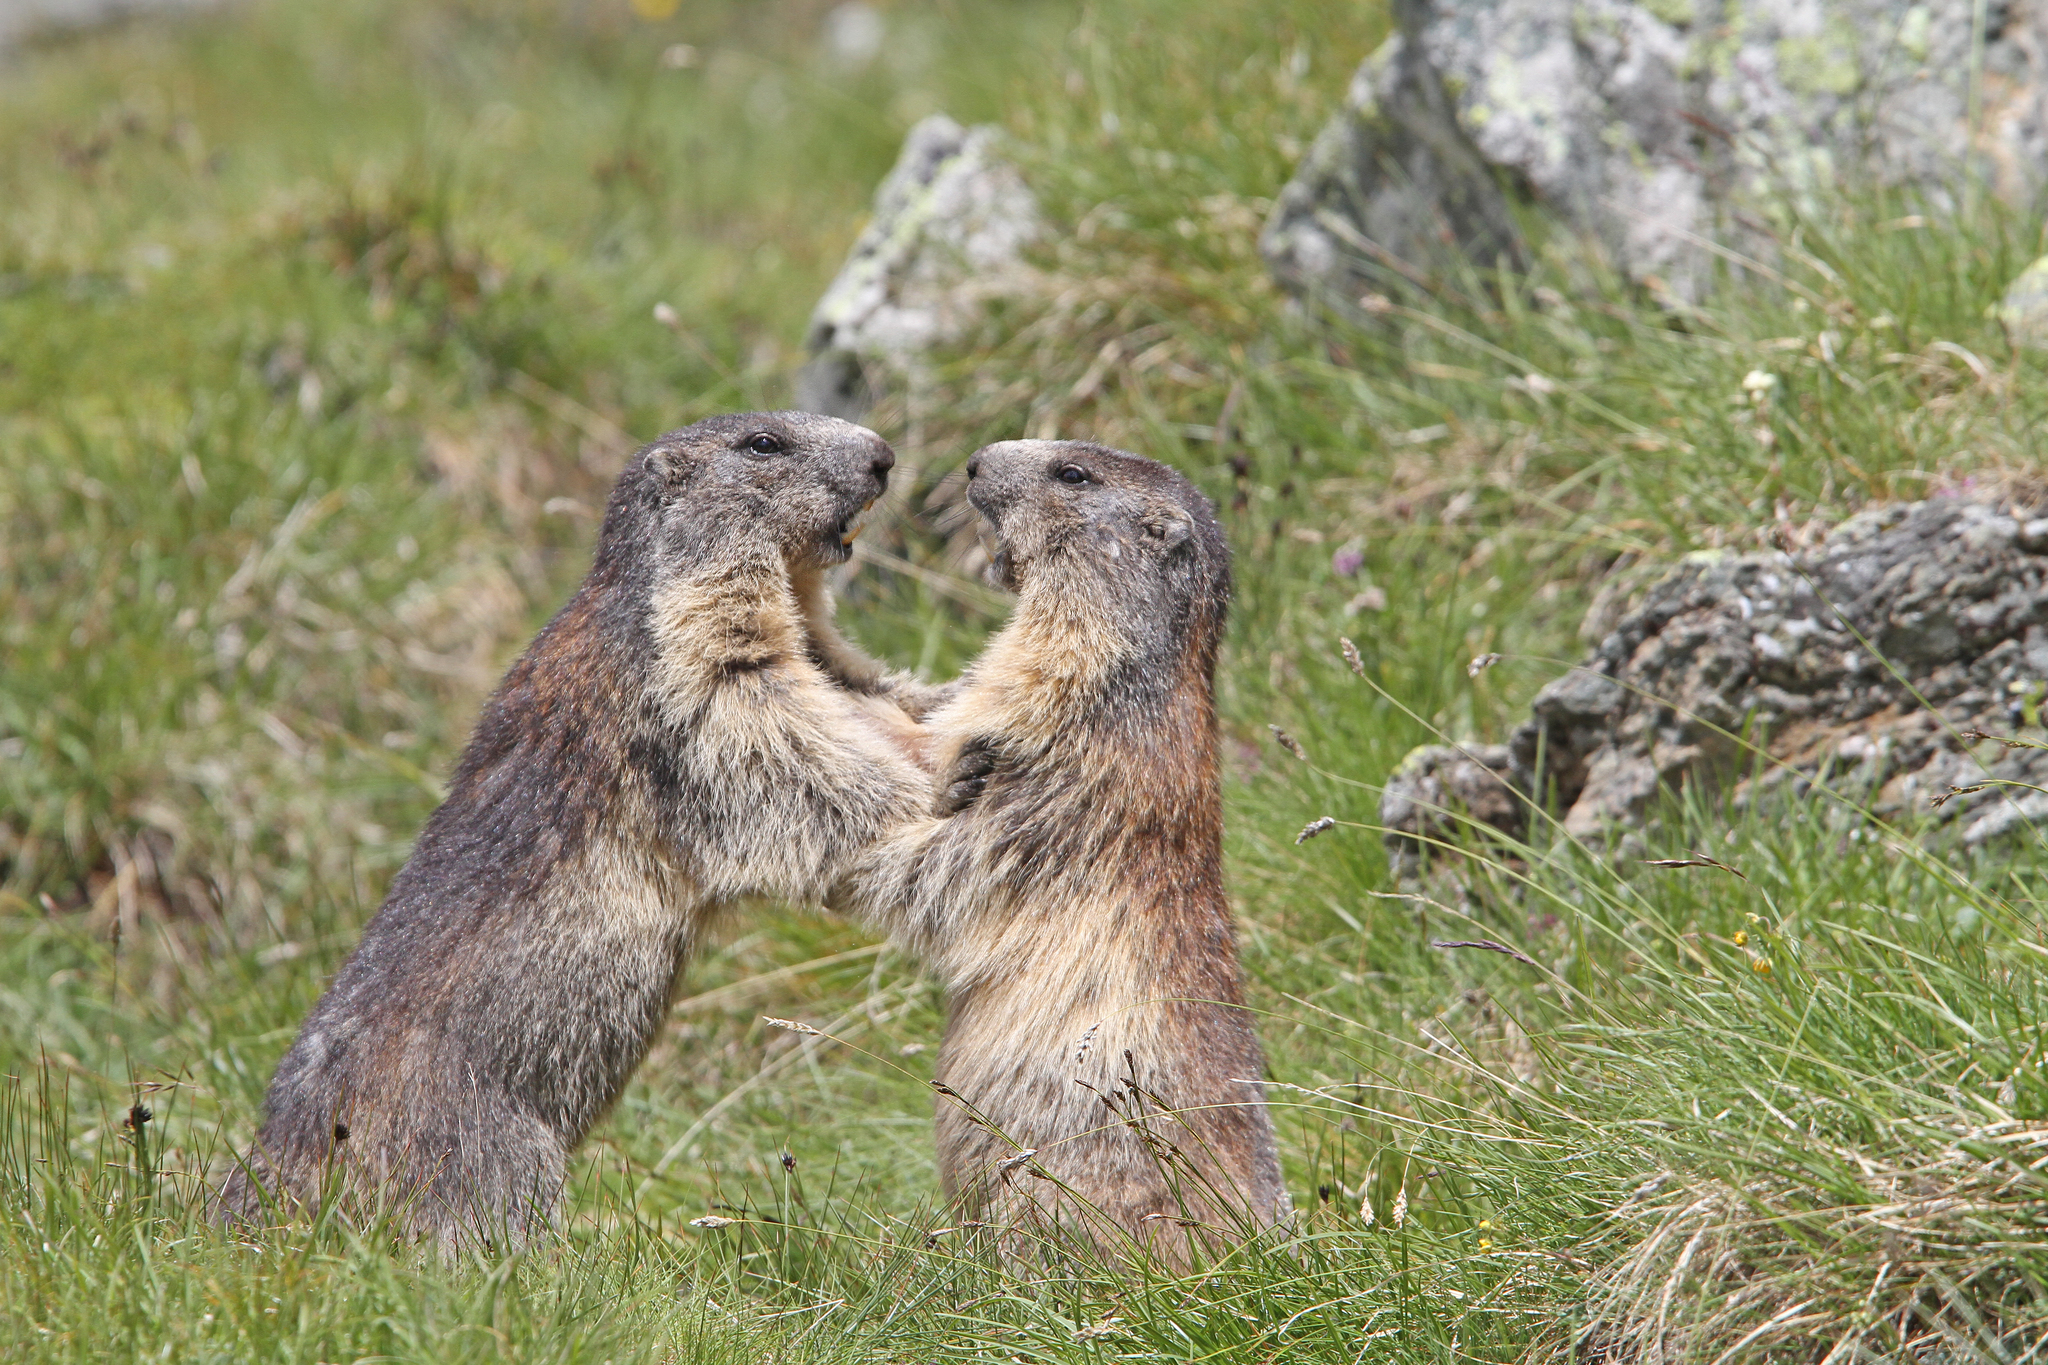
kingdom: Animalia
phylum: Chordata
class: Mammalia
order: Rodentia
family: Sciuridae
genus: Marmota
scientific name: Marmota marmota
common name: Alpine marmot
